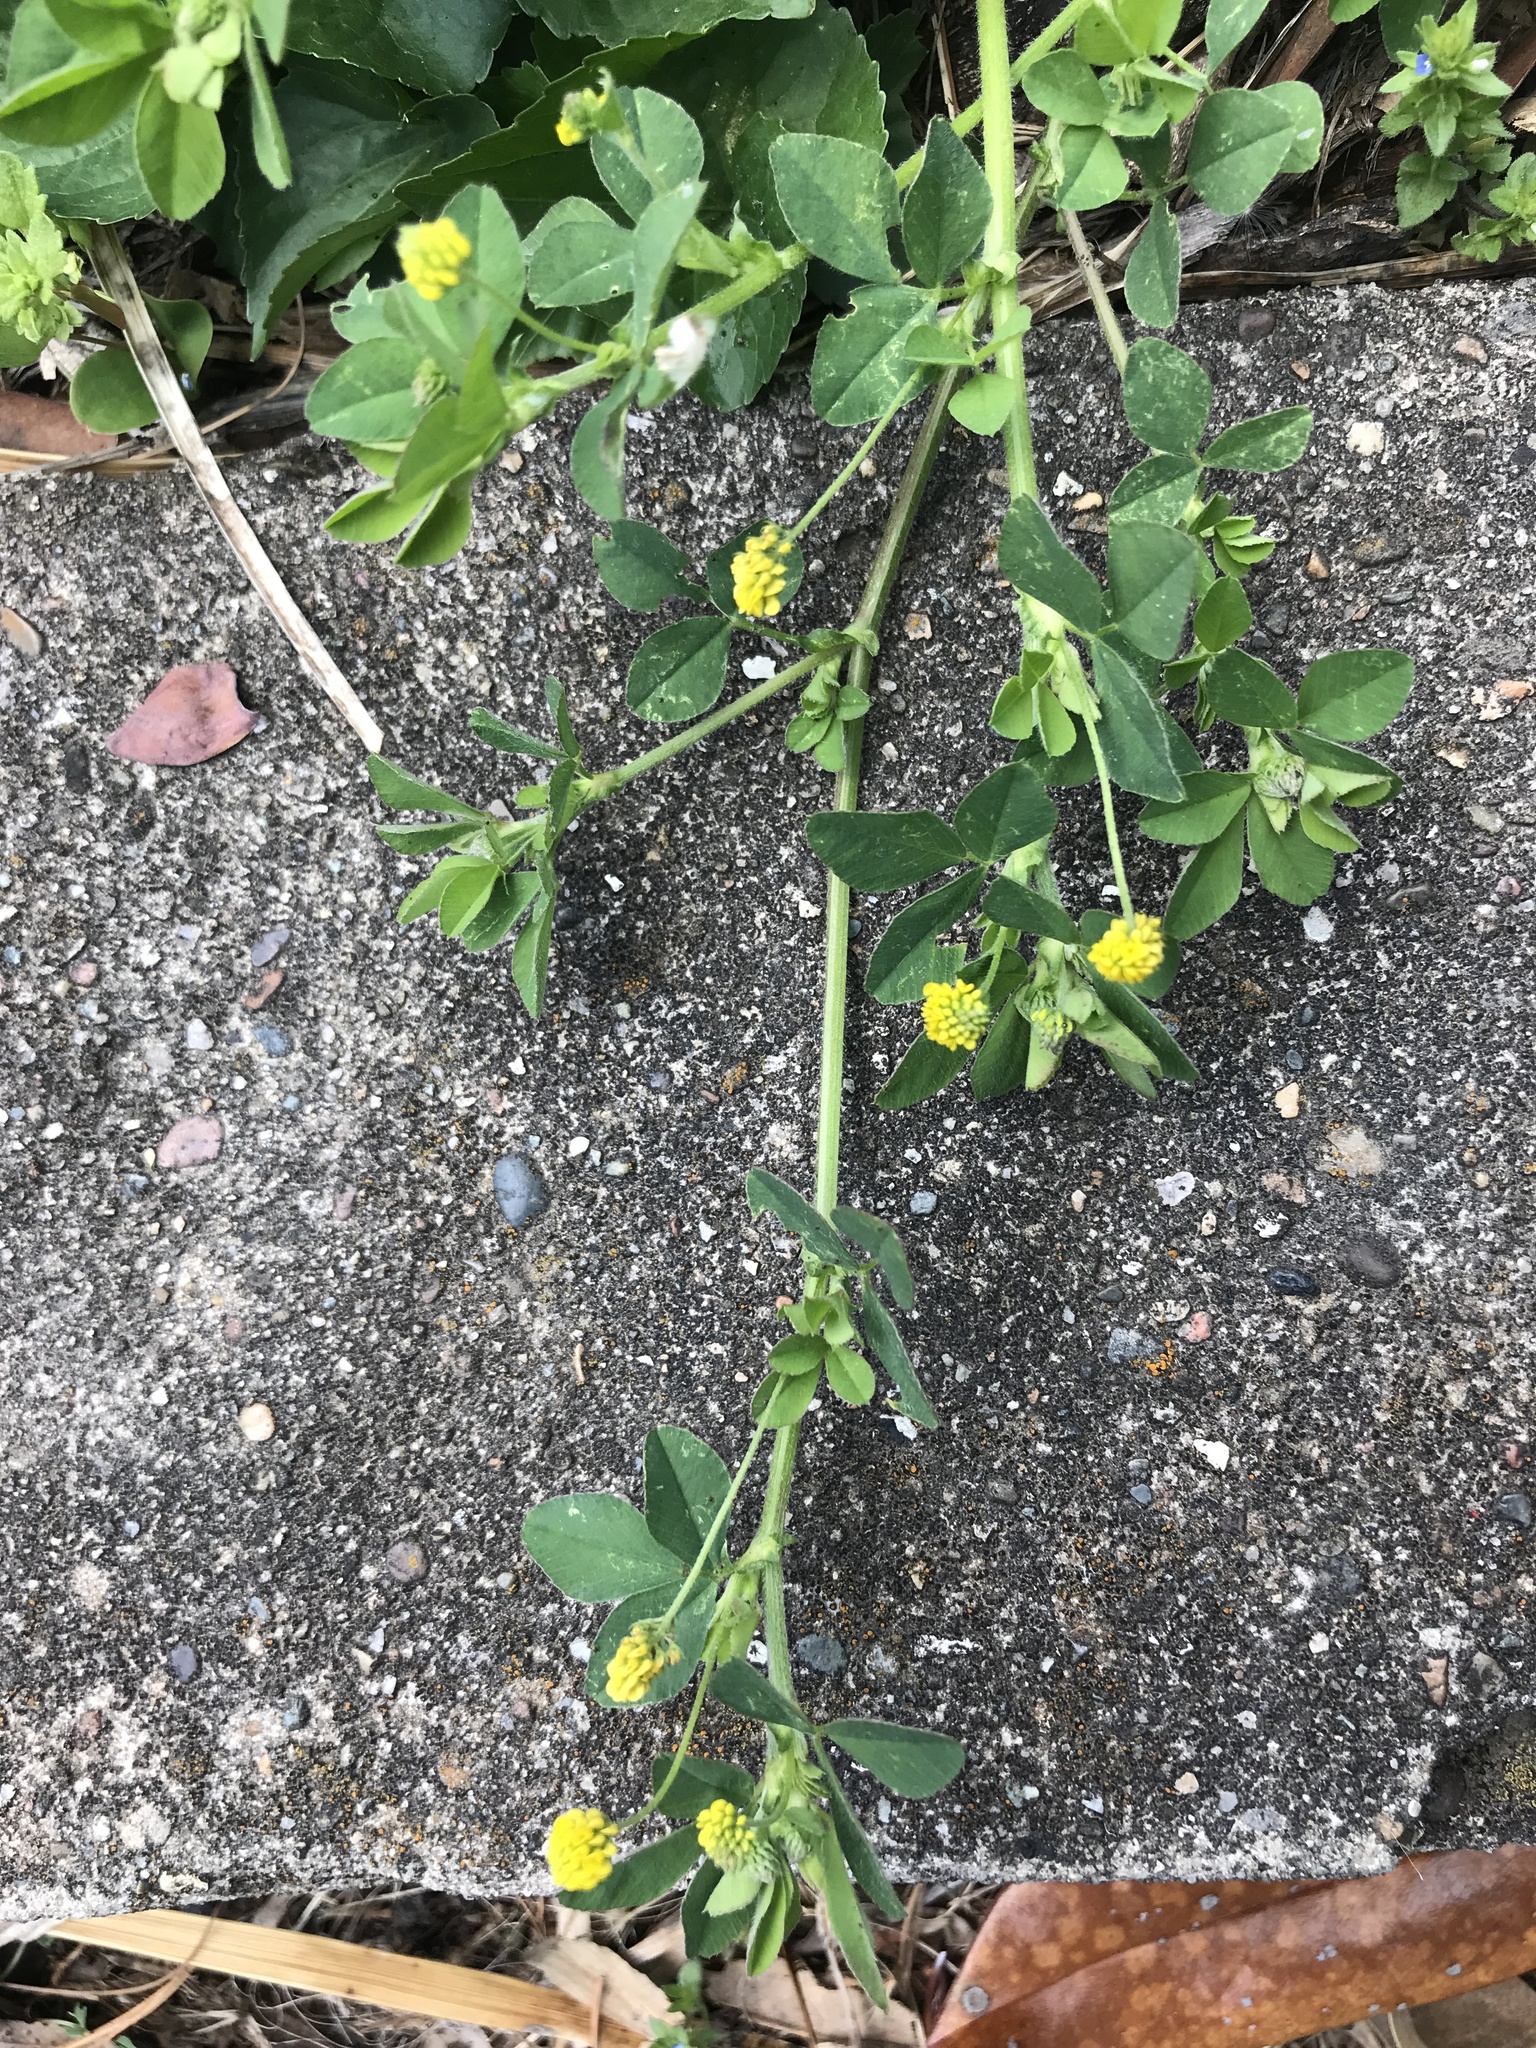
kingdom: Plantae
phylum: Tracheophyta
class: Magnoliopsida
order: Fabales
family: Fabaceae
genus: Medicago
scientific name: Medicago lupulina
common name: Black medick
